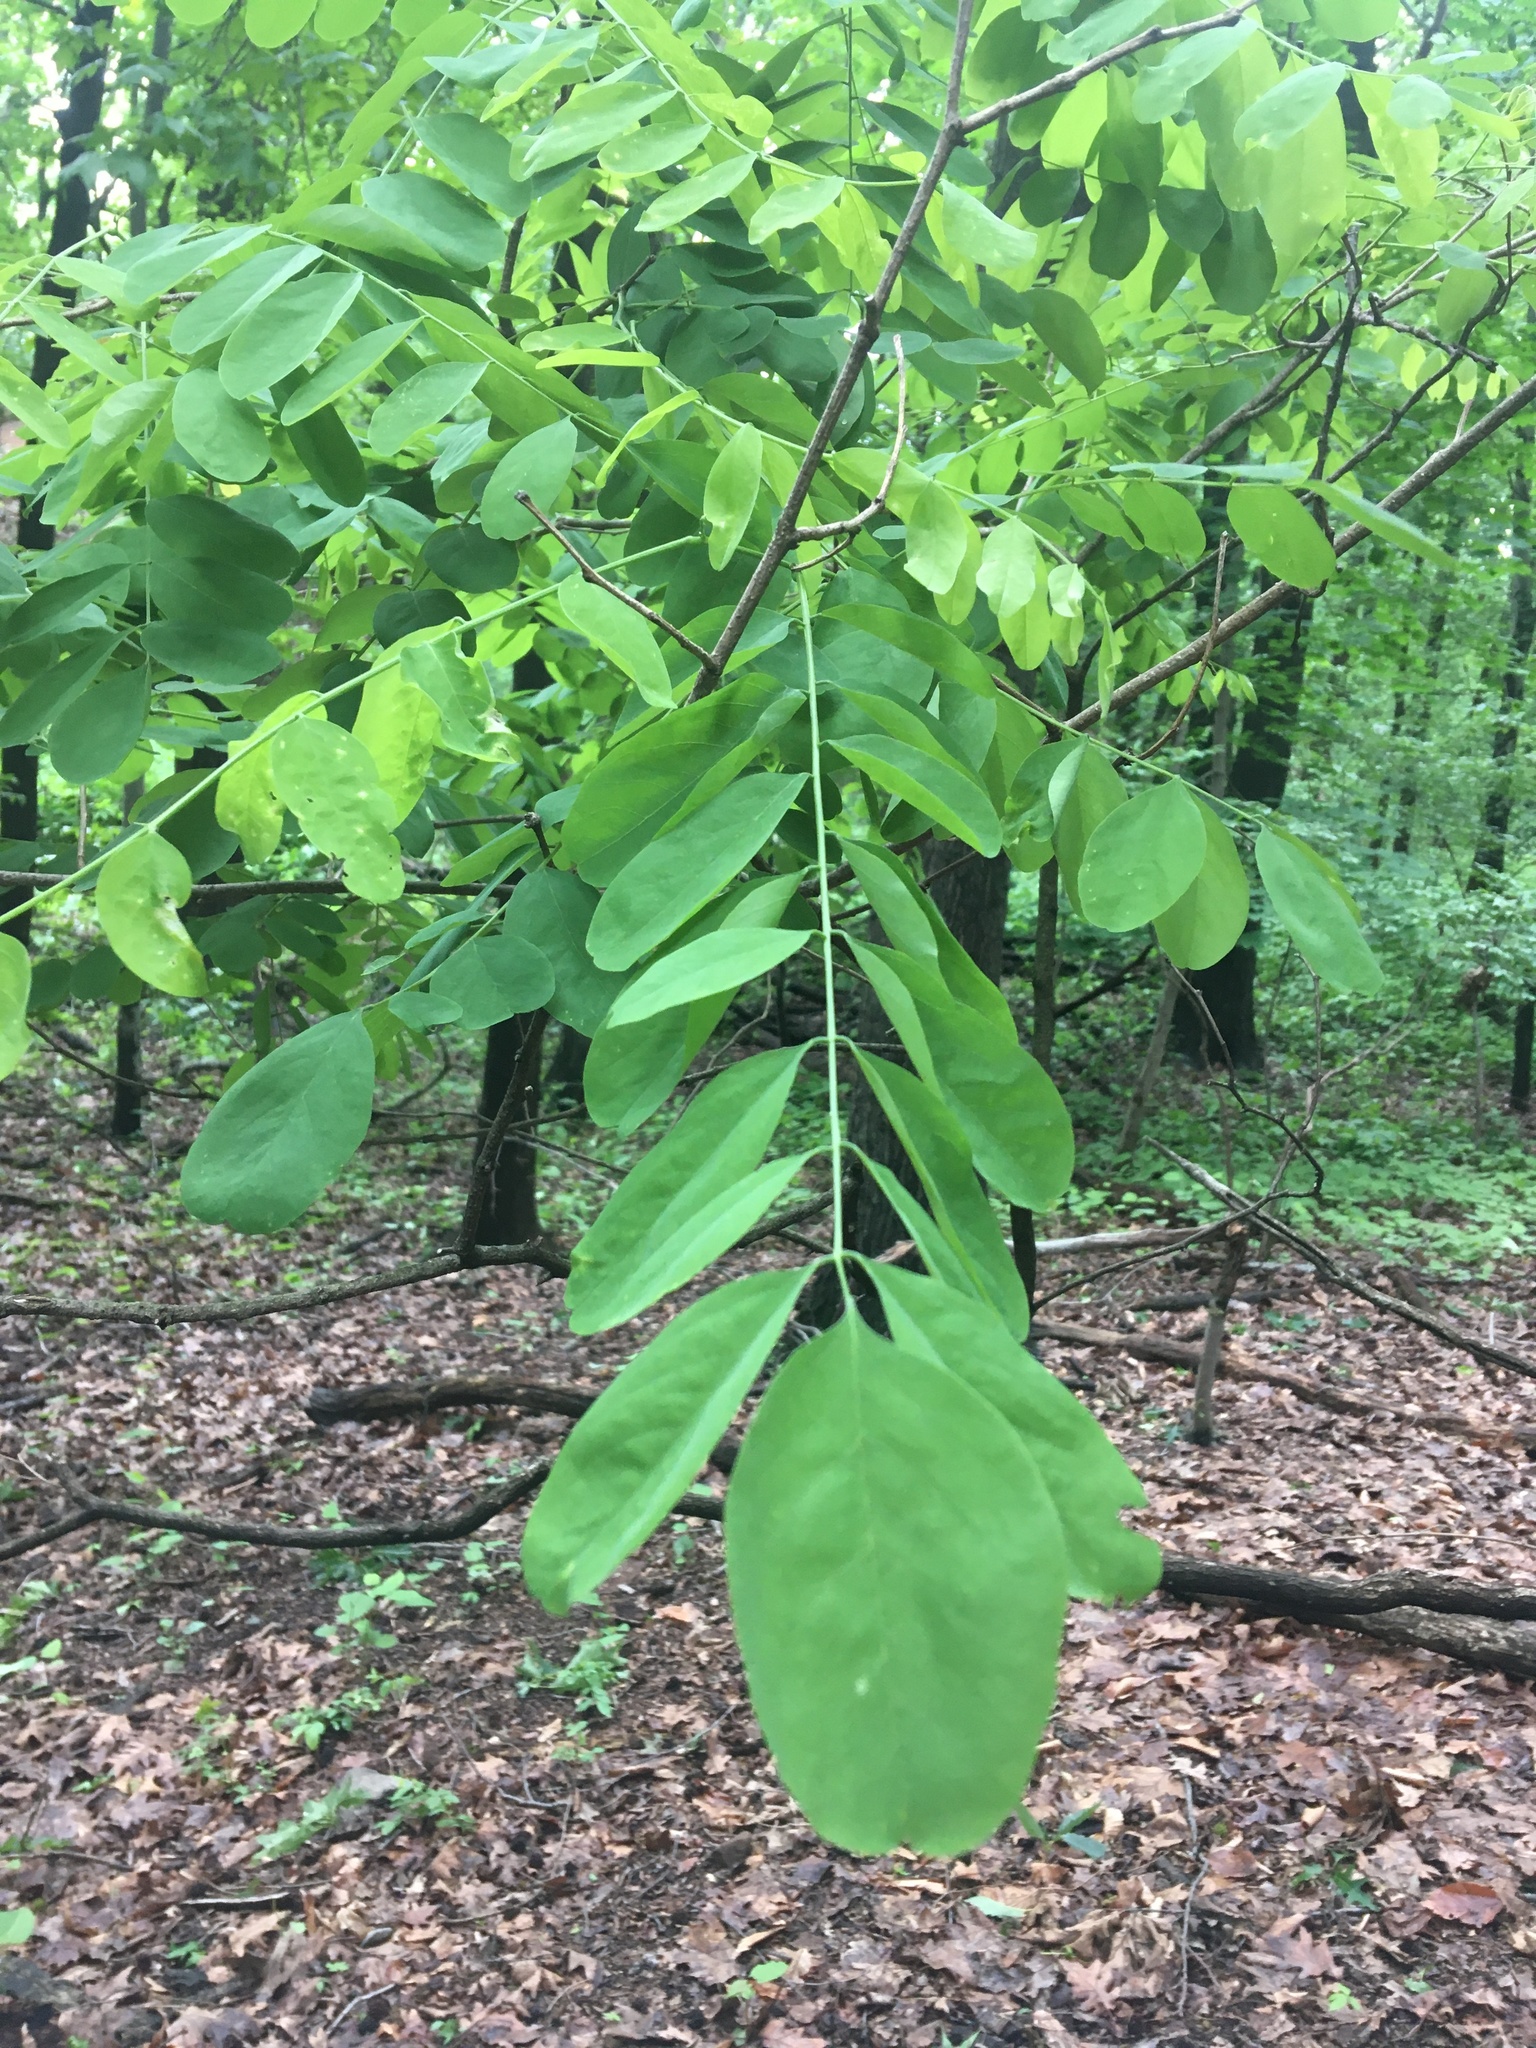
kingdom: Plantae
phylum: Tracheophyta
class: Magnoliopsida
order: Fabales
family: Fabaceae
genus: Robinia
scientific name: Robinia pseudoacacia
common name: Black locust
